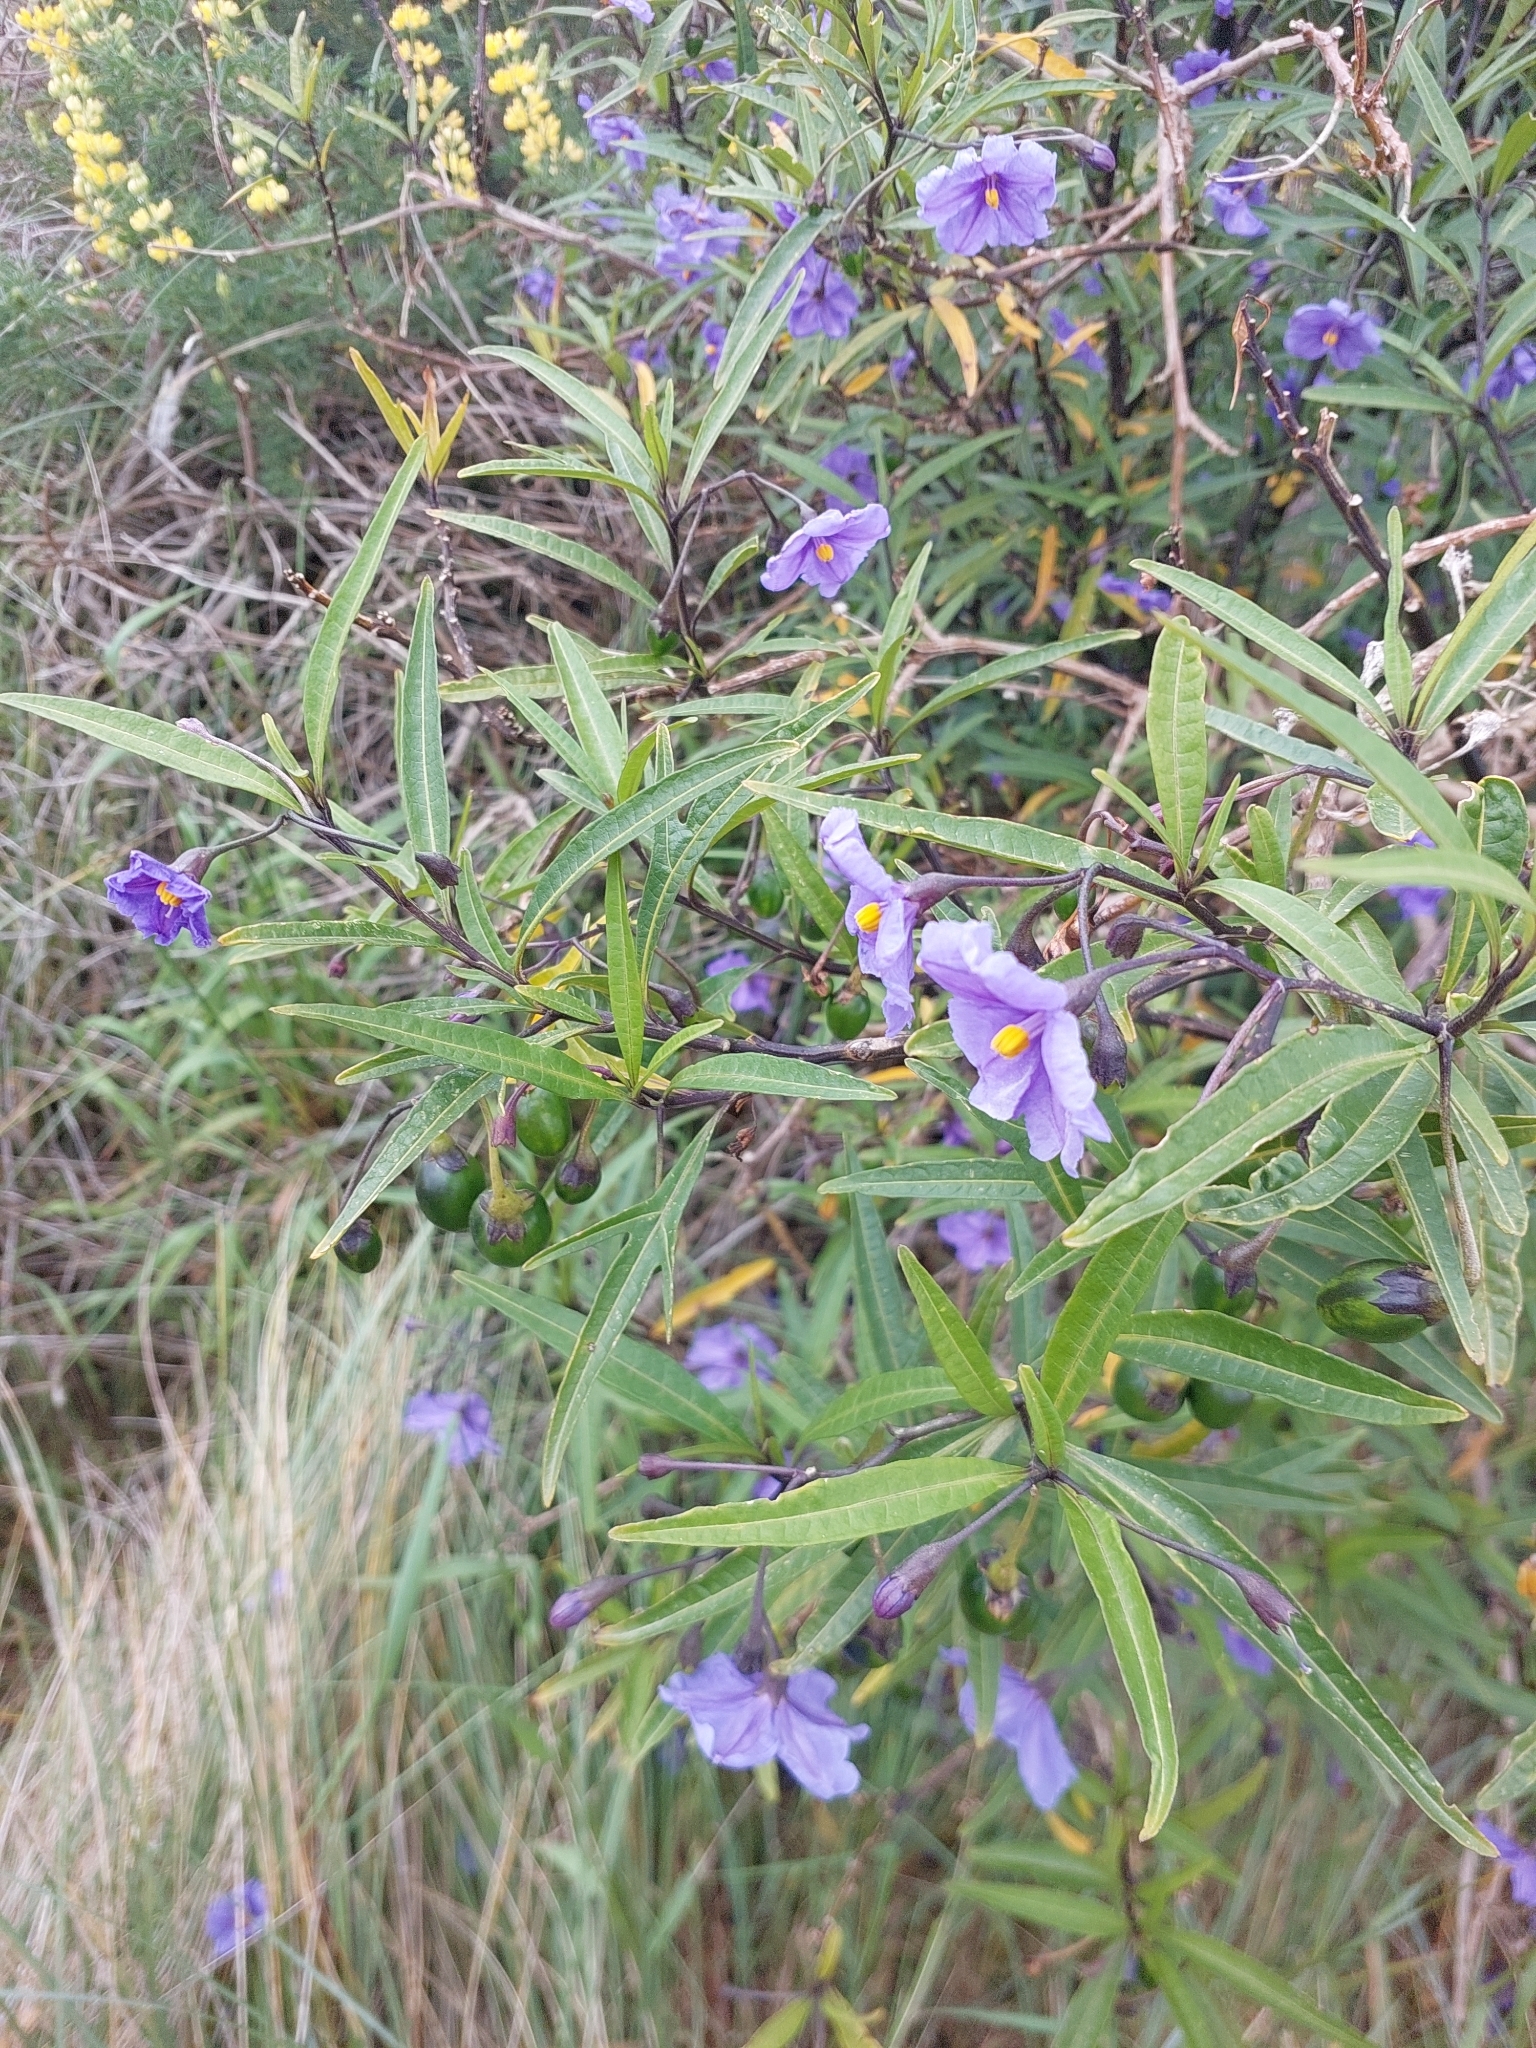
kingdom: Plantae
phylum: Tracheophyta
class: Magnoliopsida
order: Solanales
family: Solanaceae
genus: Solanum
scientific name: Solanum laciniatum
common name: Kangaroo-apple
